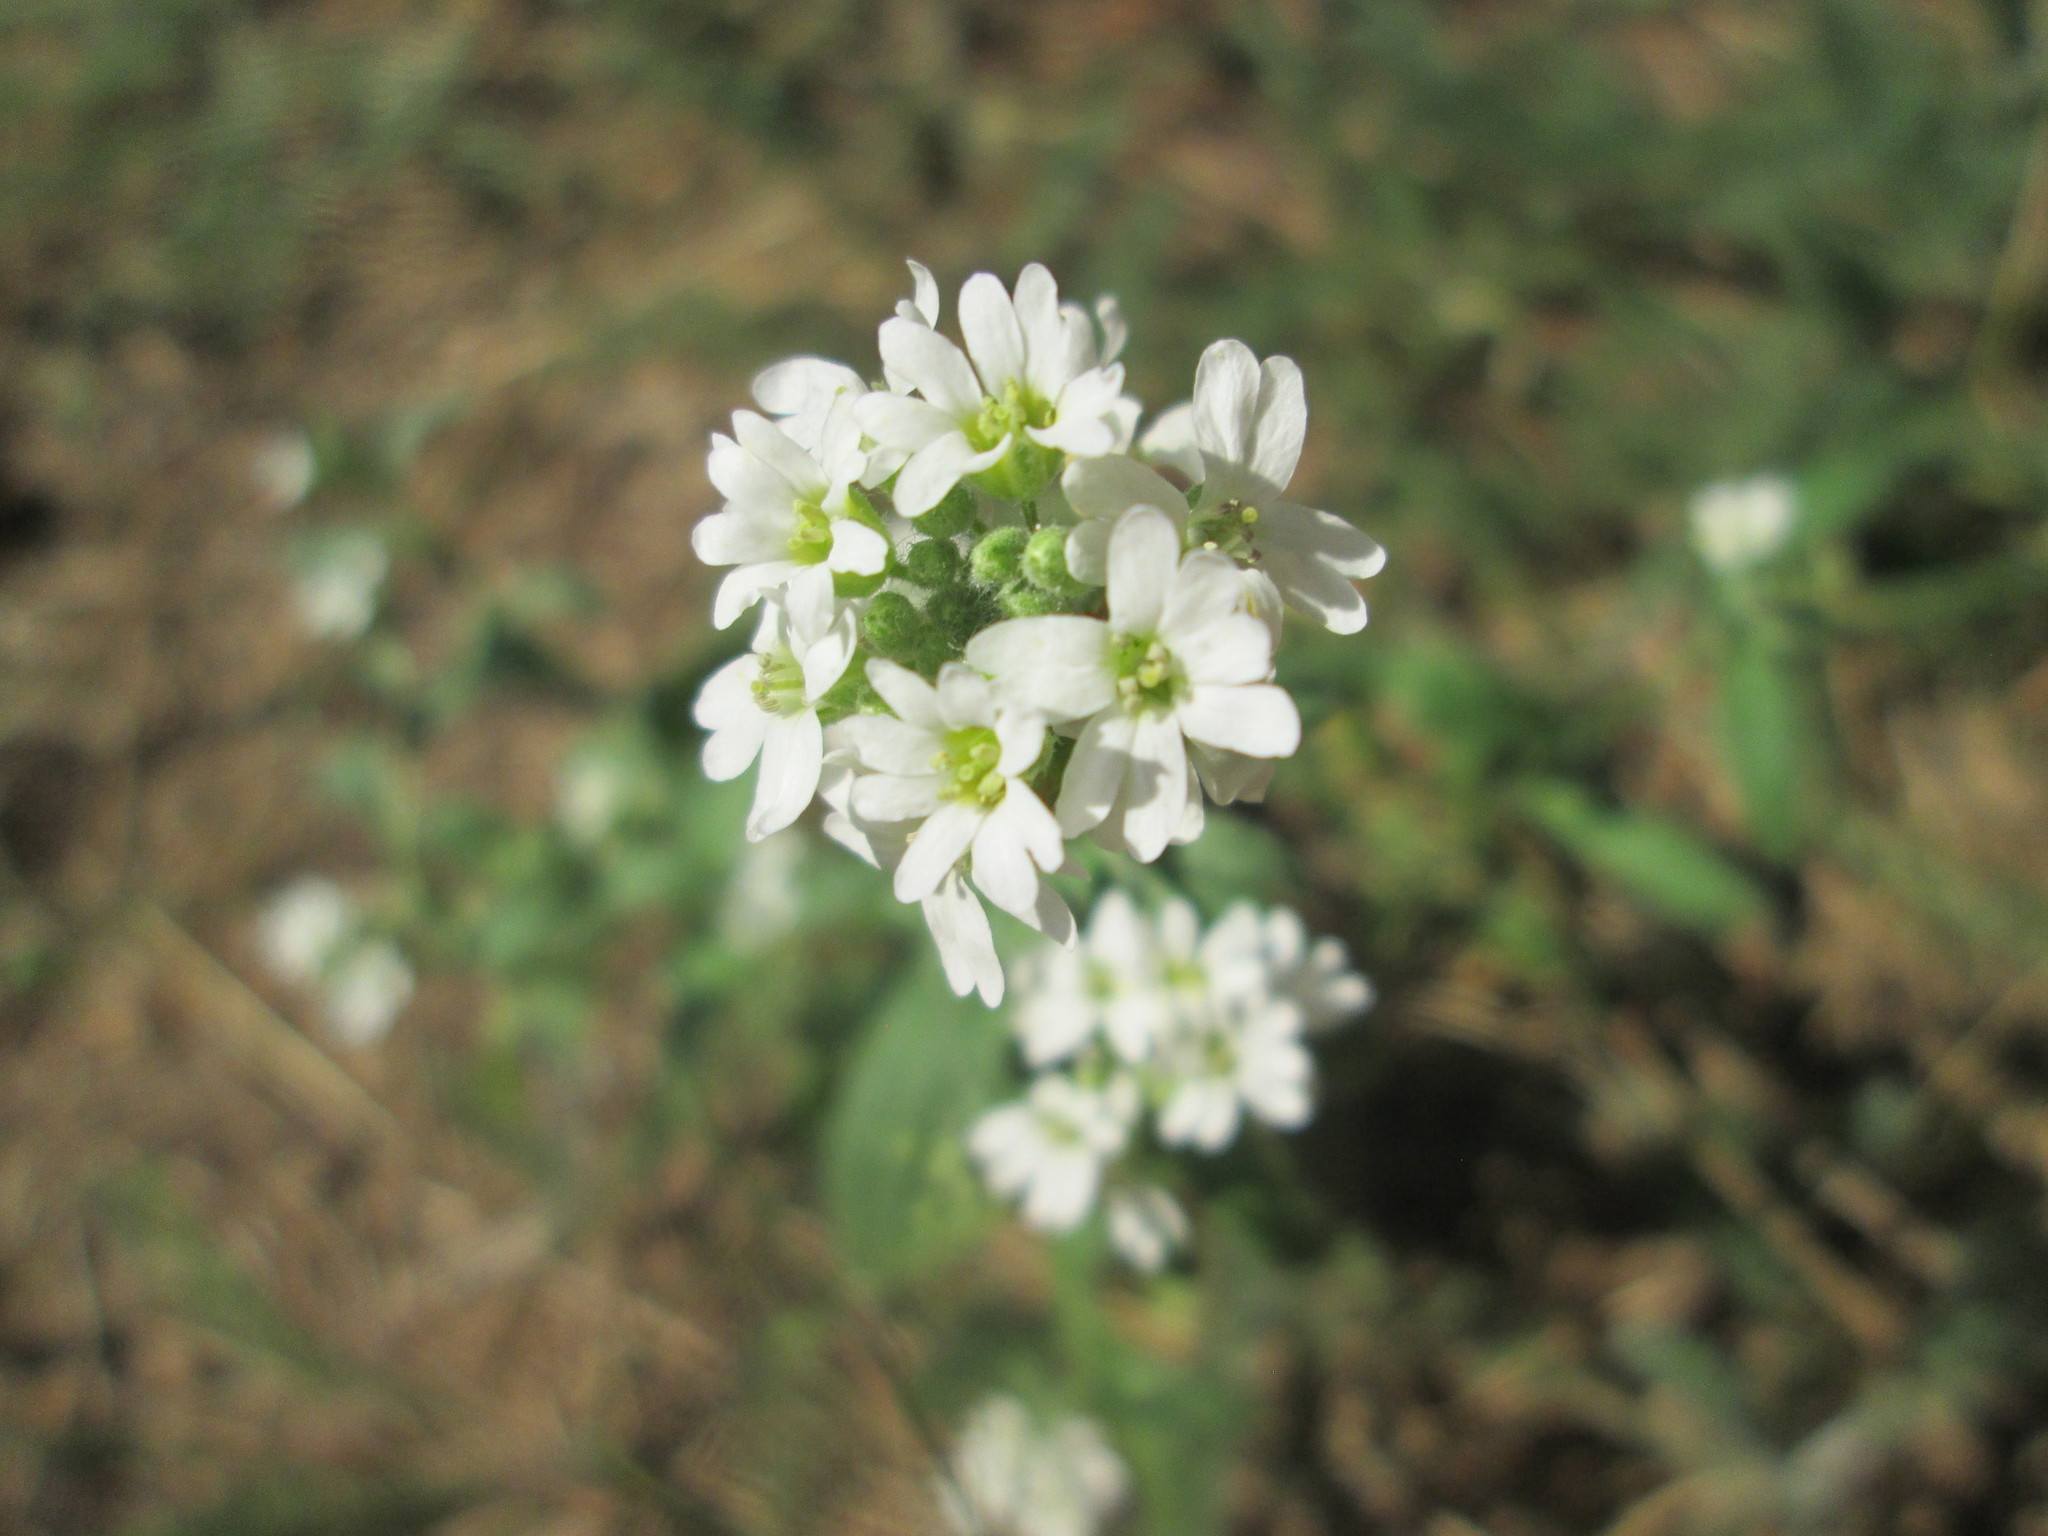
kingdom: Plantae
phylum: Tracheophyta
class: Magnoliopsida
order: Brassicales
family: Brassicaceae
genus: Berteroa
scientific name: Berteroa incana
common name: Hoary alison
